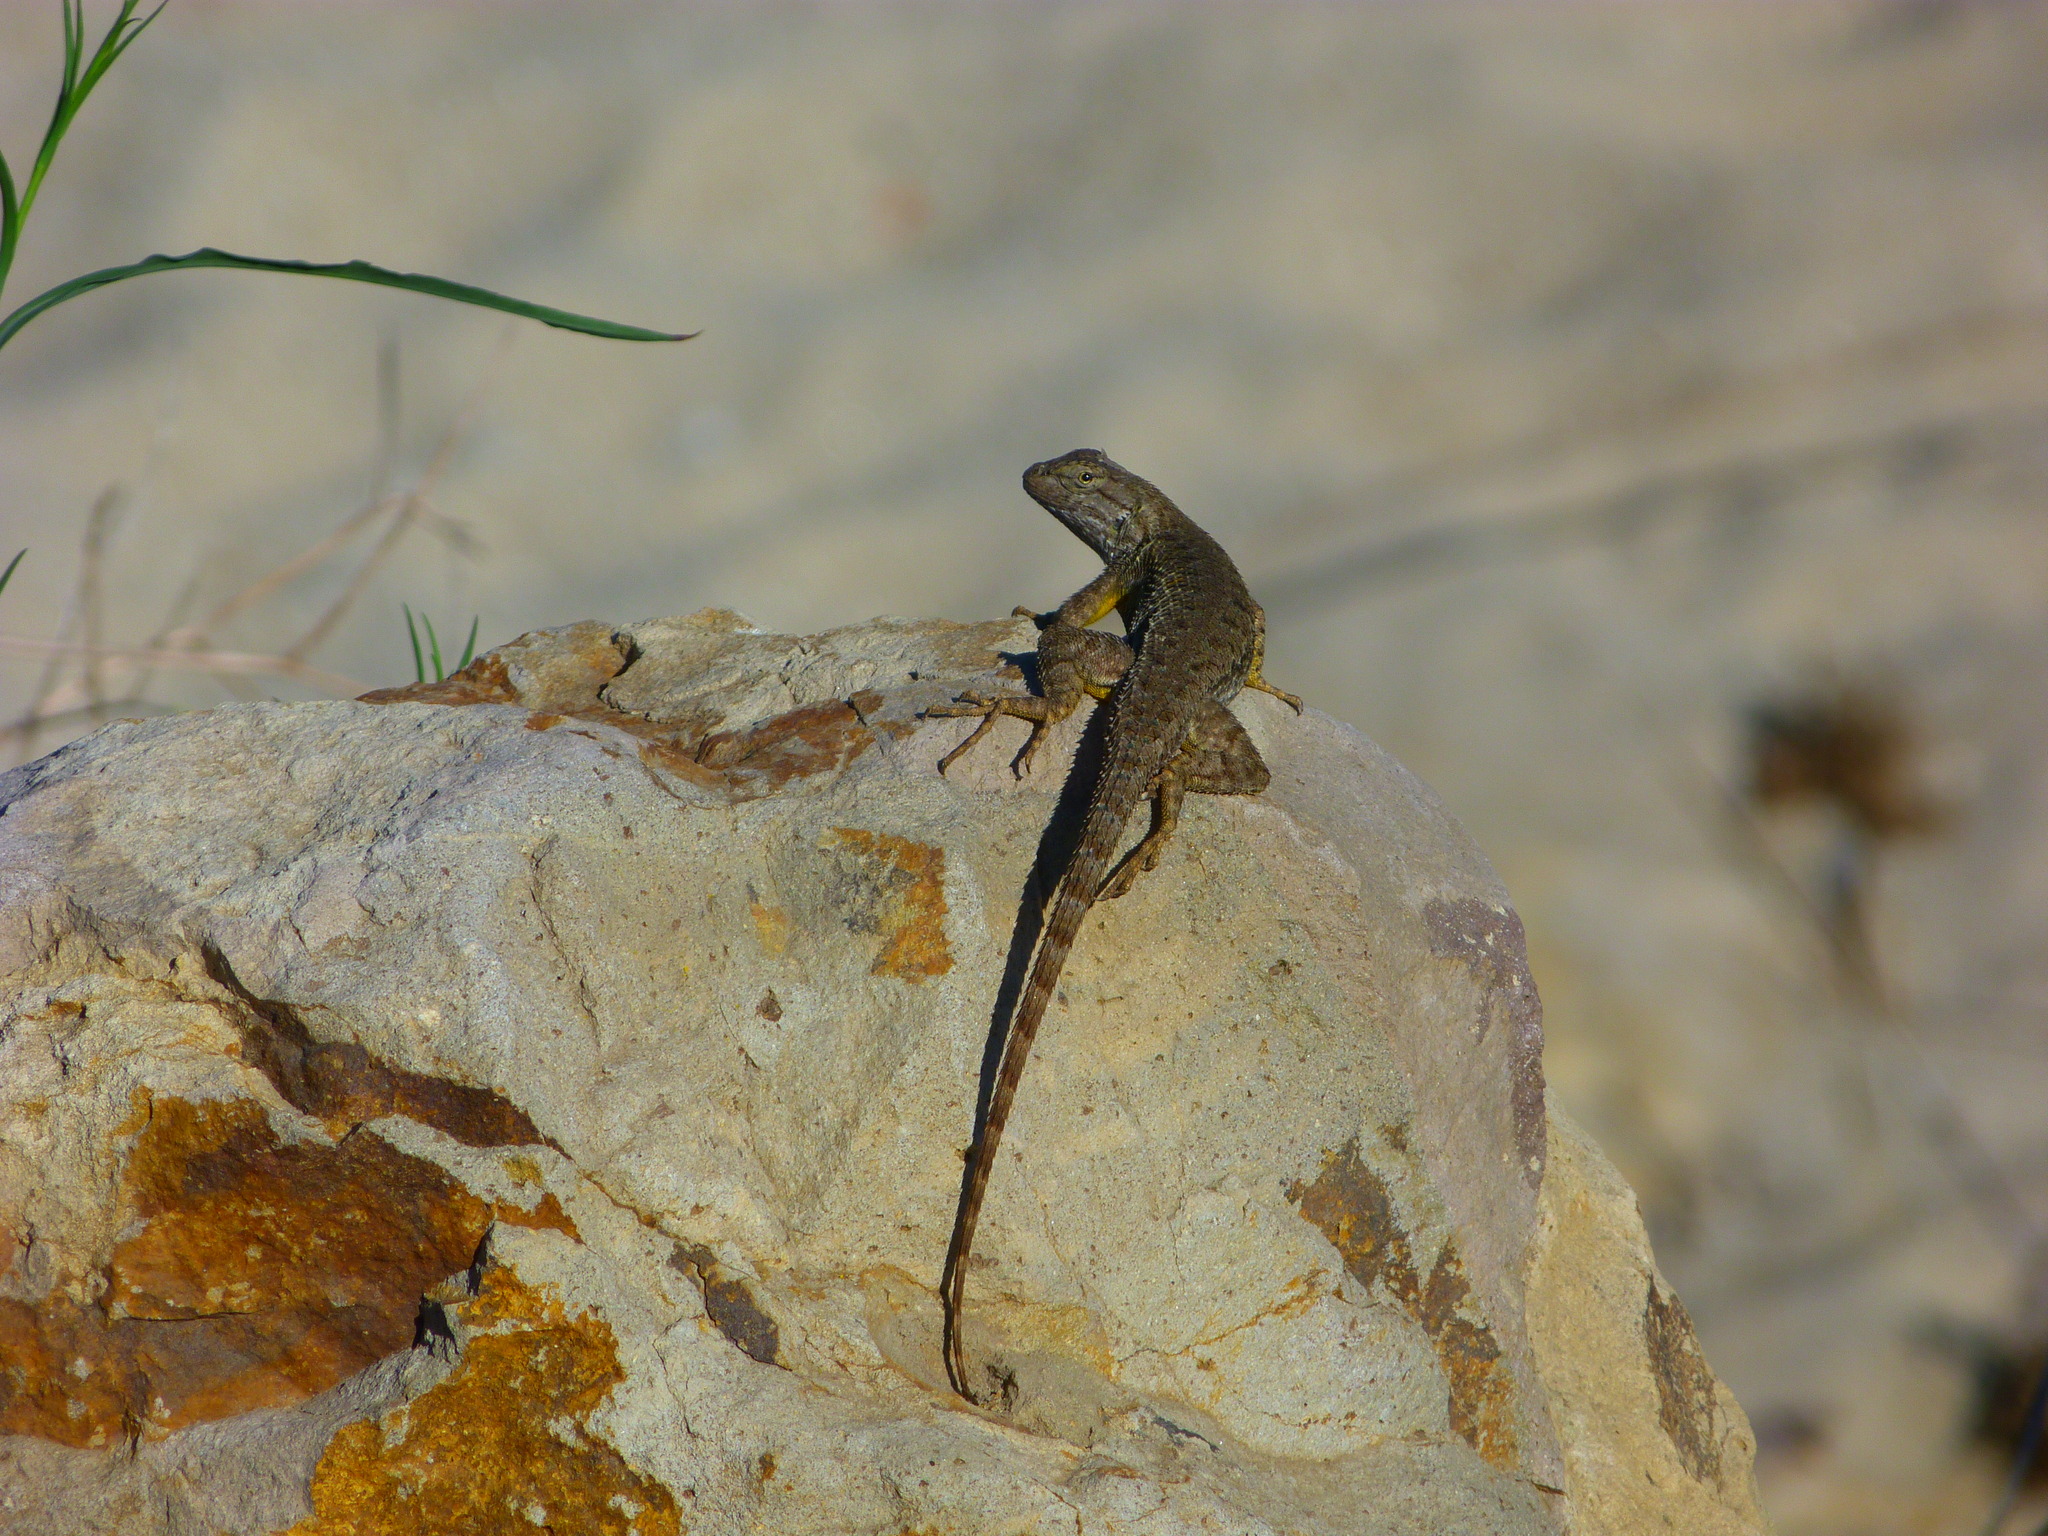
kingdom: Animalia
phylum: Chordata
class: Squamata
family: Phrynosomatidae
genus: Sceloporus
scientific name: Sceloporus occidentalis
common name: Western fence lizard
